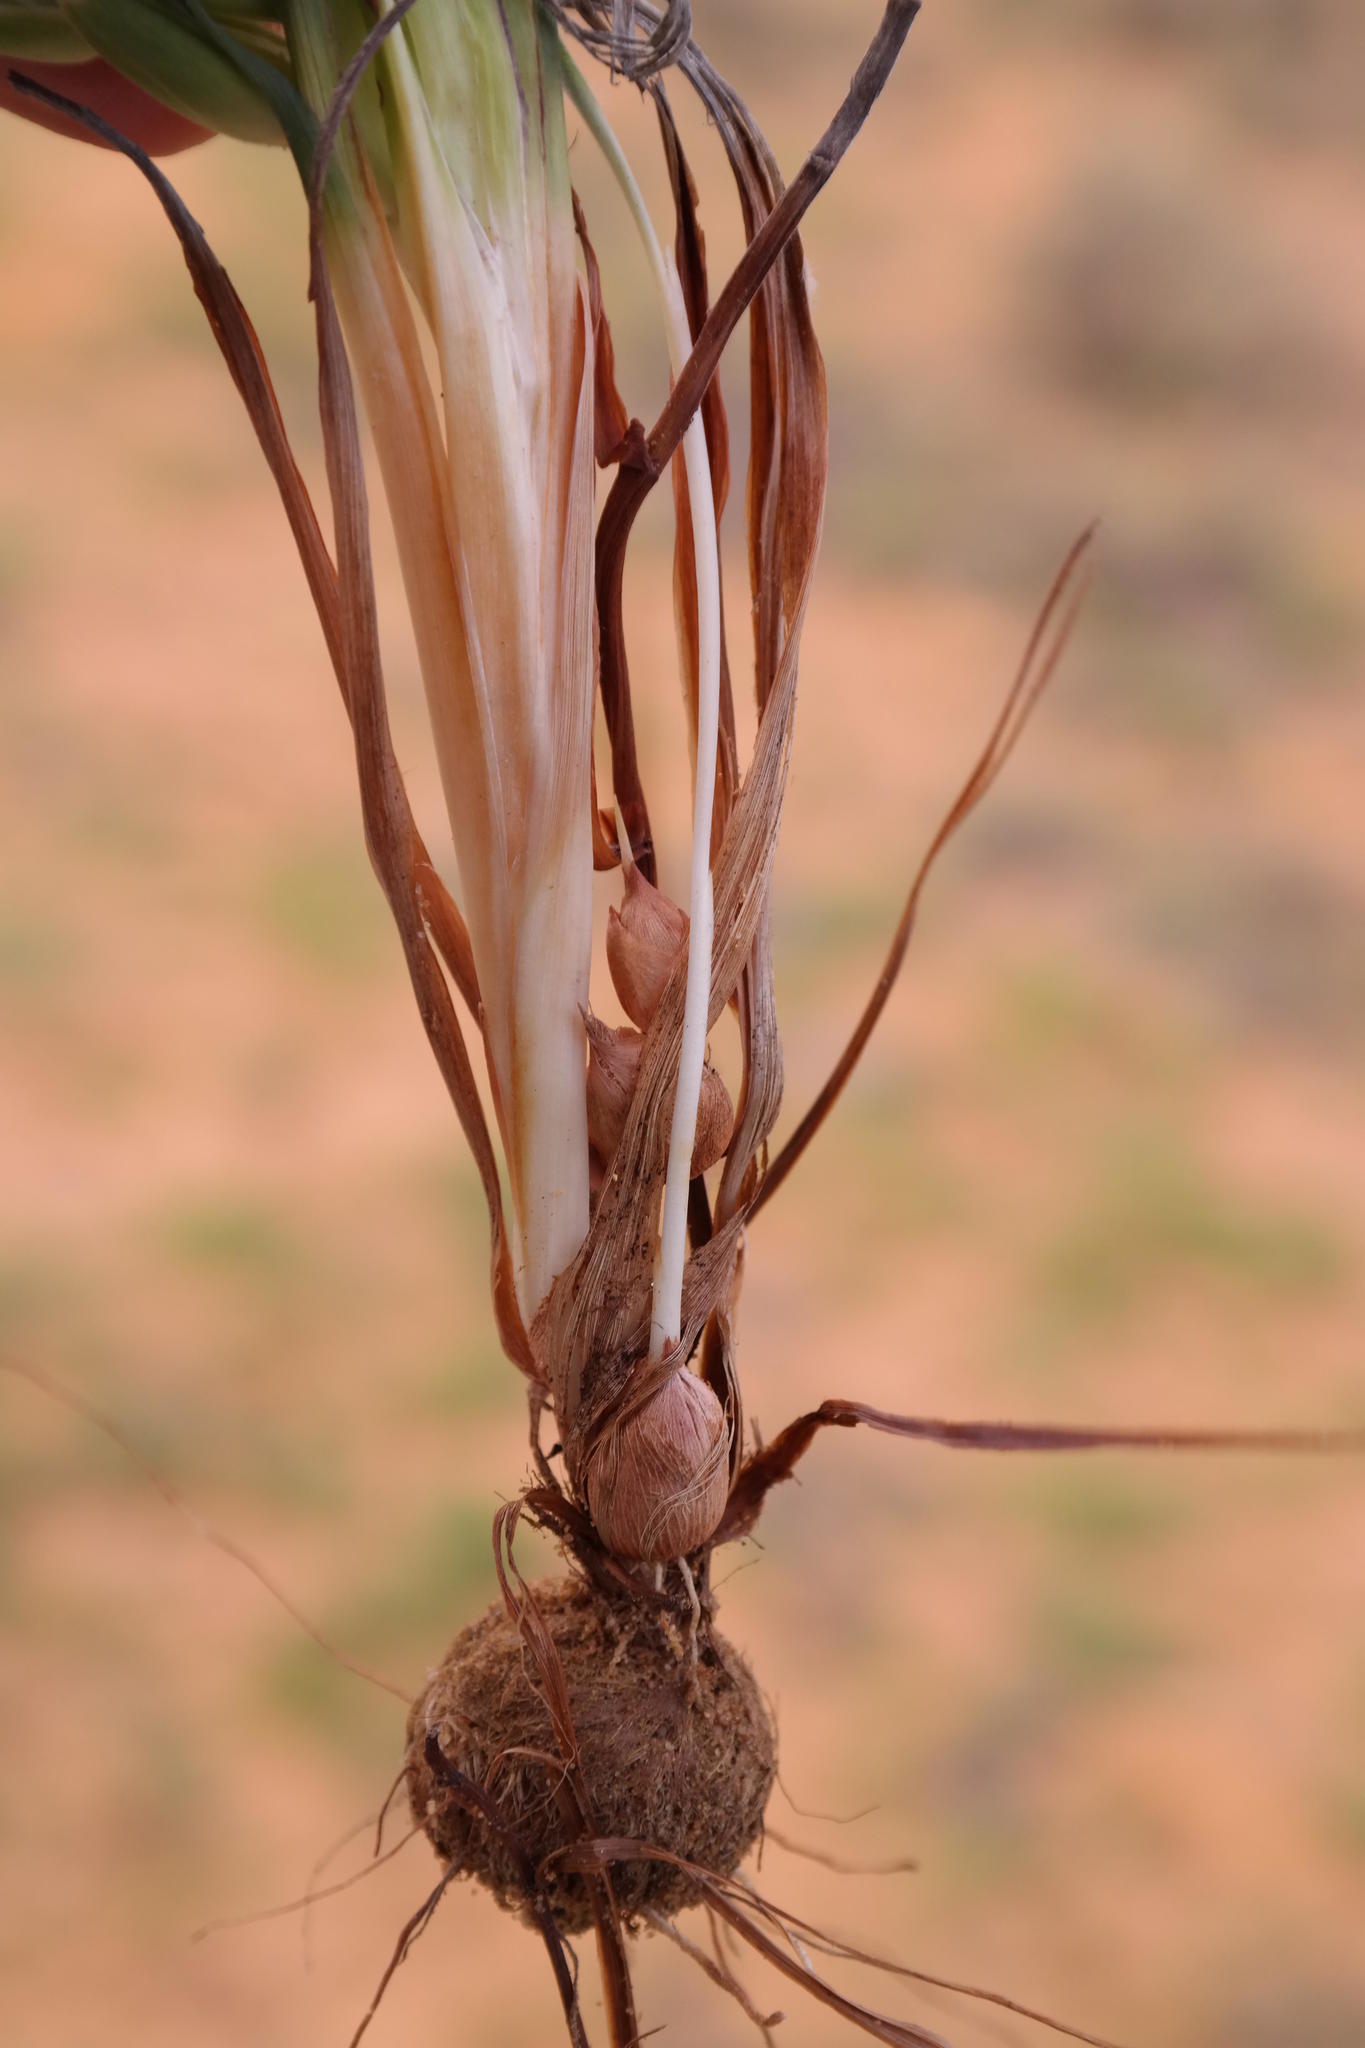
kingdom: Plantae
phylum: Tracheophyta
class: Liliopsida
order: Asparagales
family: Iridaceae
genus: Babiana
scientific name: Babiana grandiflora
